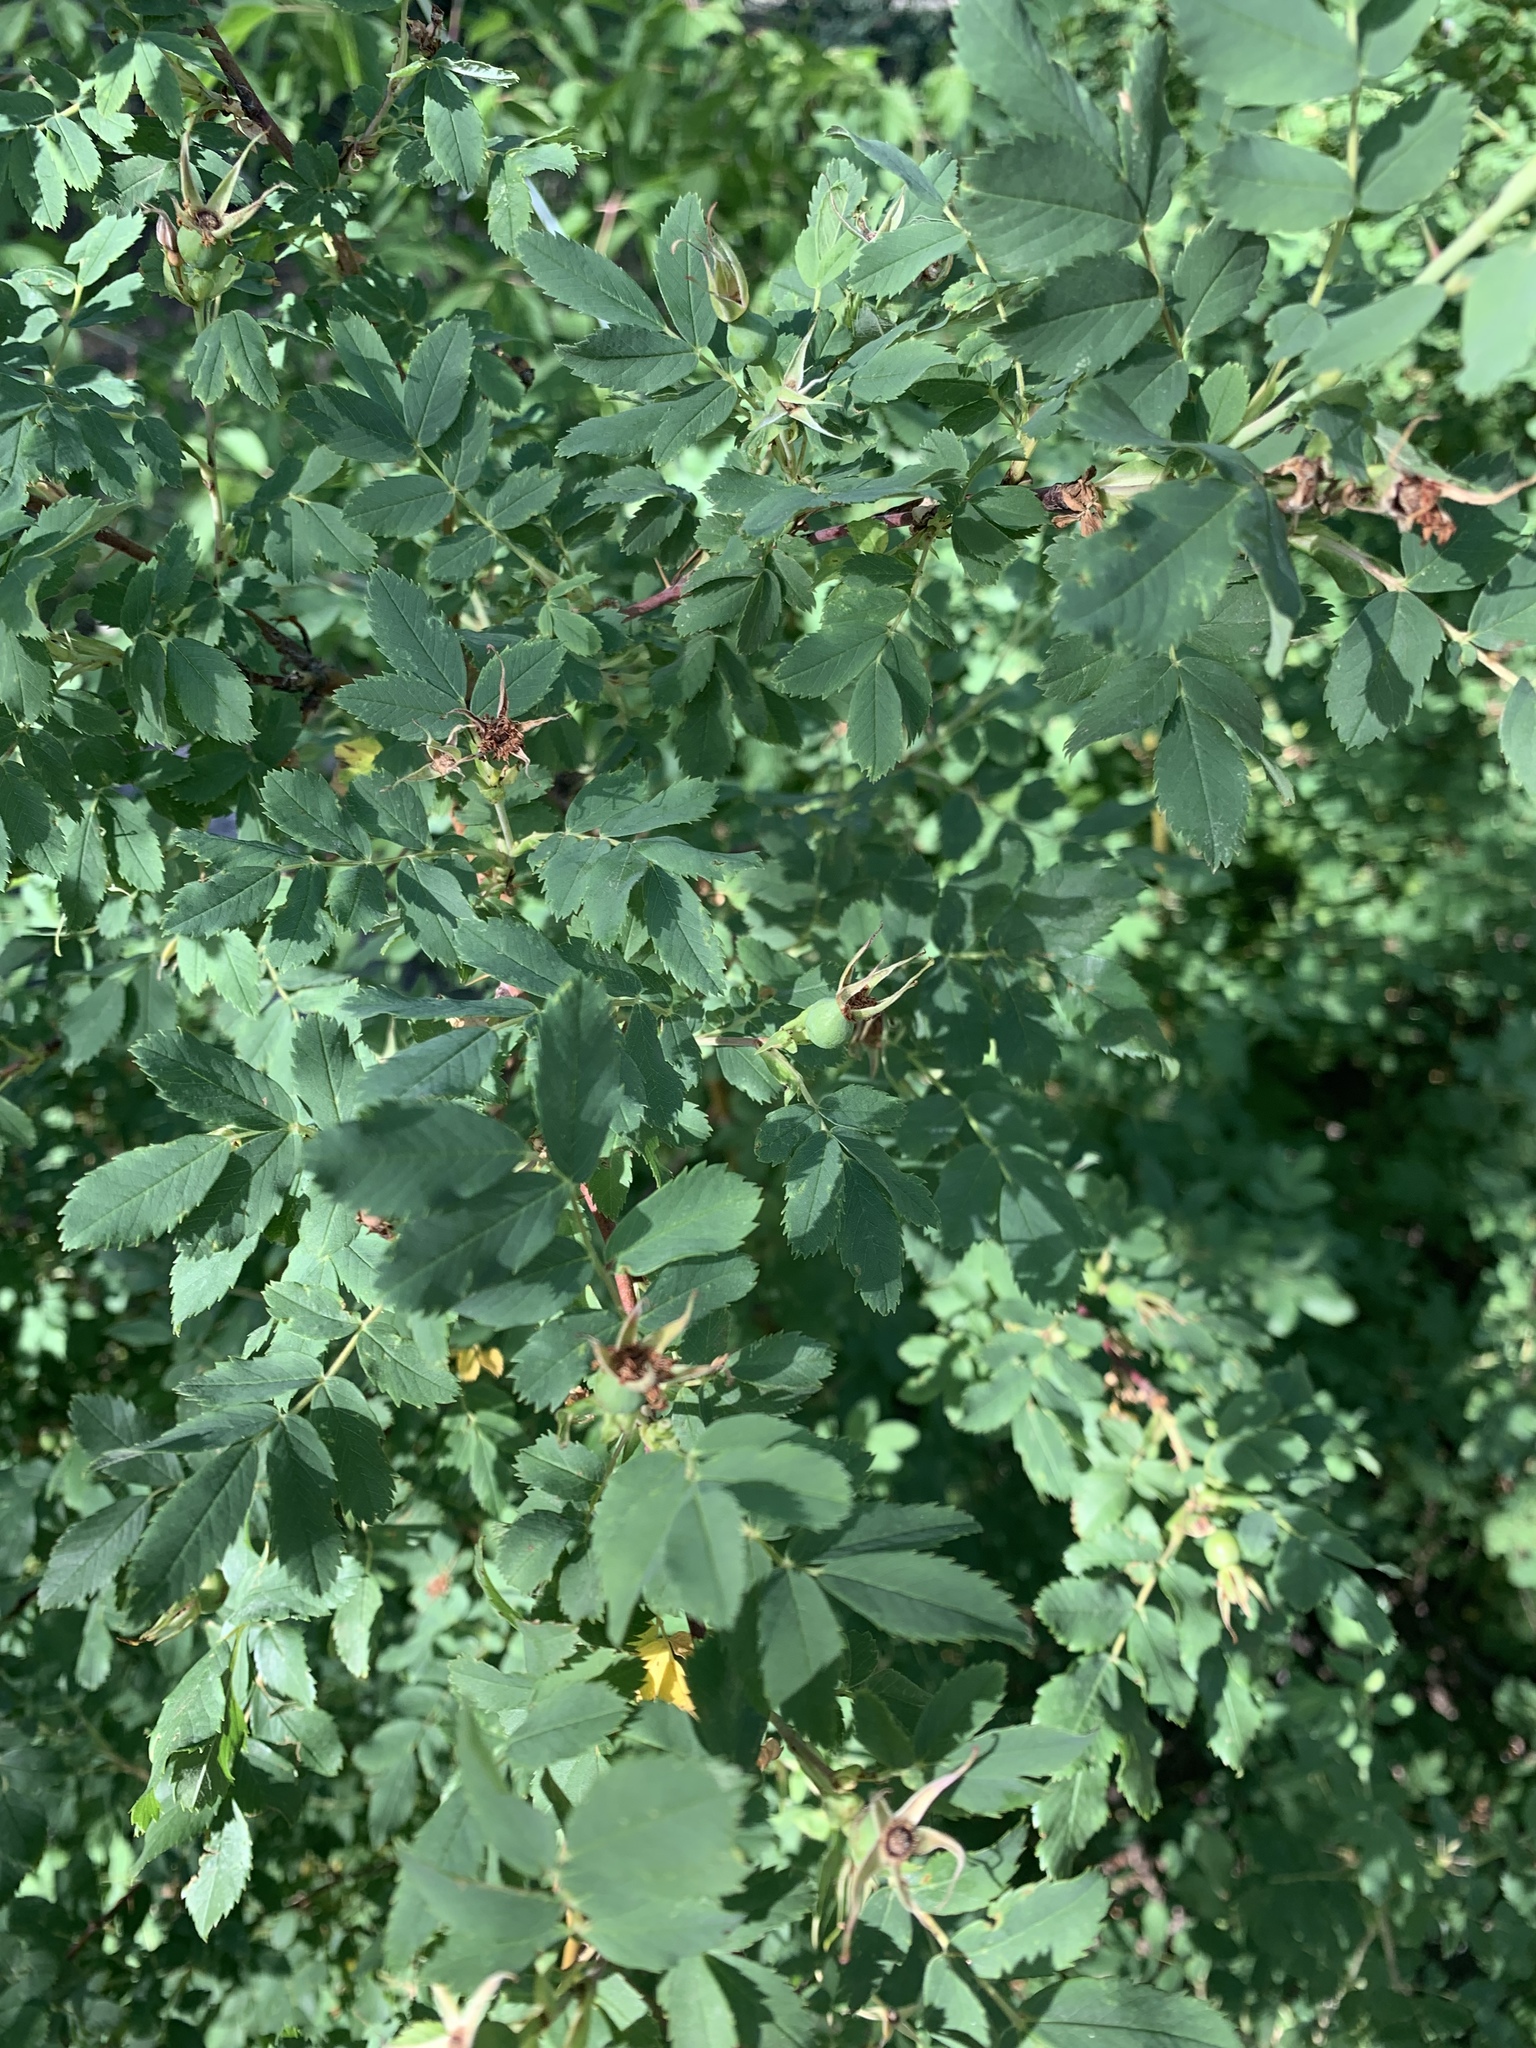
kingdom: Plantae
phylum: Tracheophyta
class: Magnoliopsida
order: Rosales
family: Rosaceae
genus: Rosa
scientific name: Rosa woodsii
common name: Woods's rose
